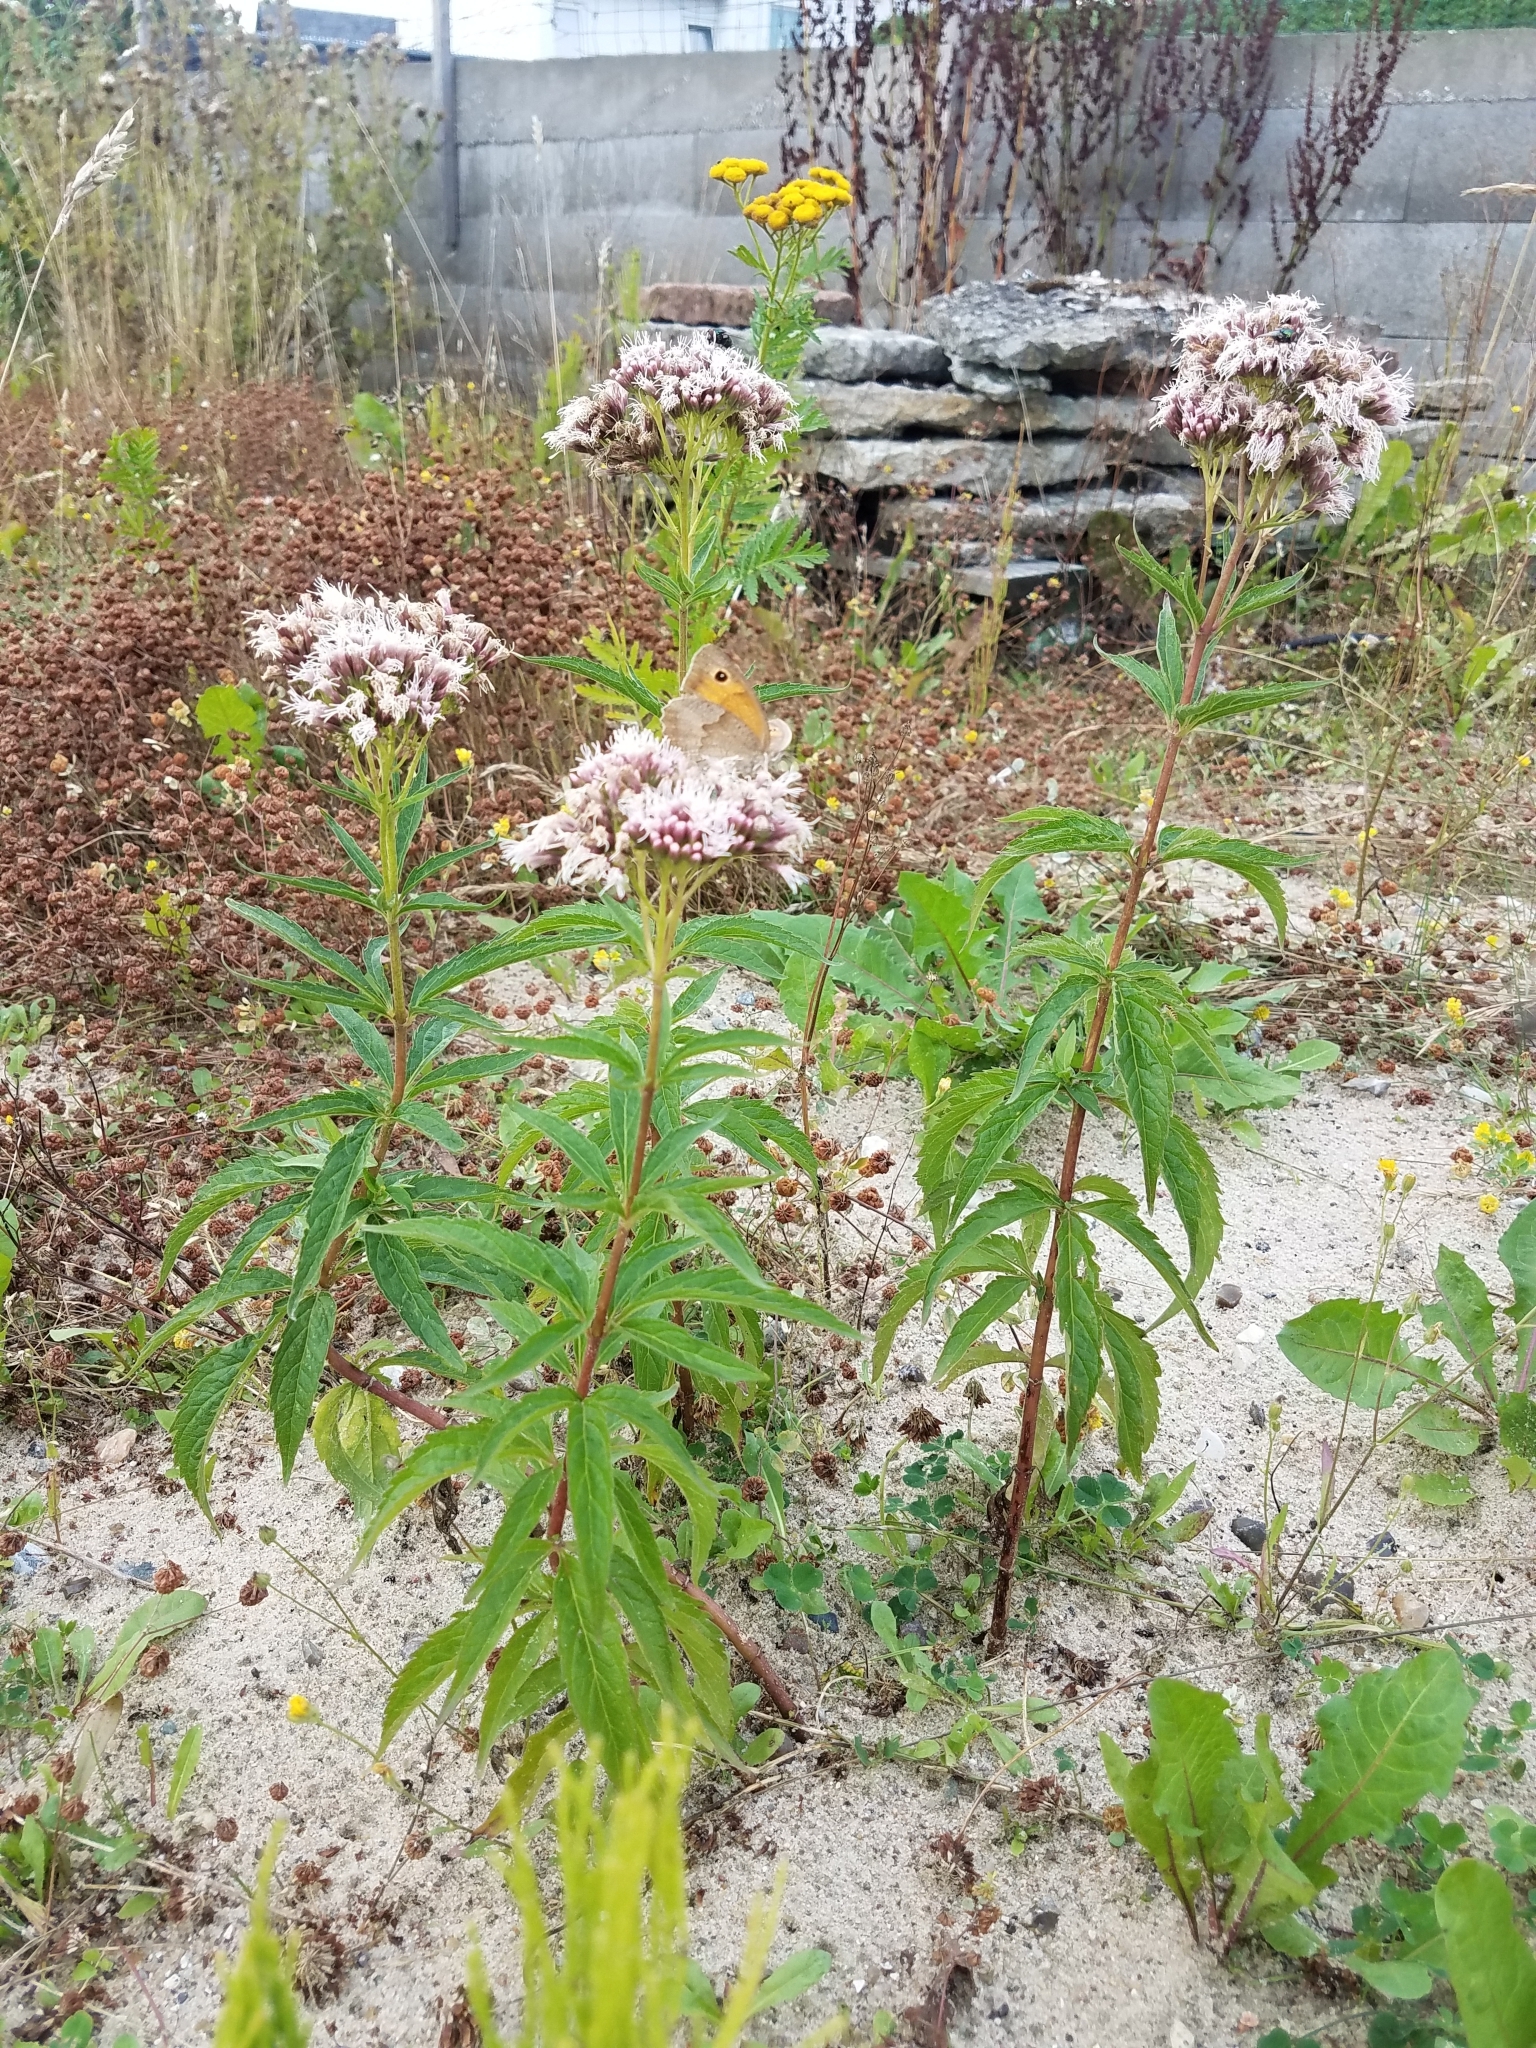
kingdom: Plantae
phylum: Tracheophyta
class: Magnoliopsida
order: Asterales
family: Asteraceae
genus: Eupatorium
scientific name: Eupatorium cannabinum
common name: Hemp-agrimony
